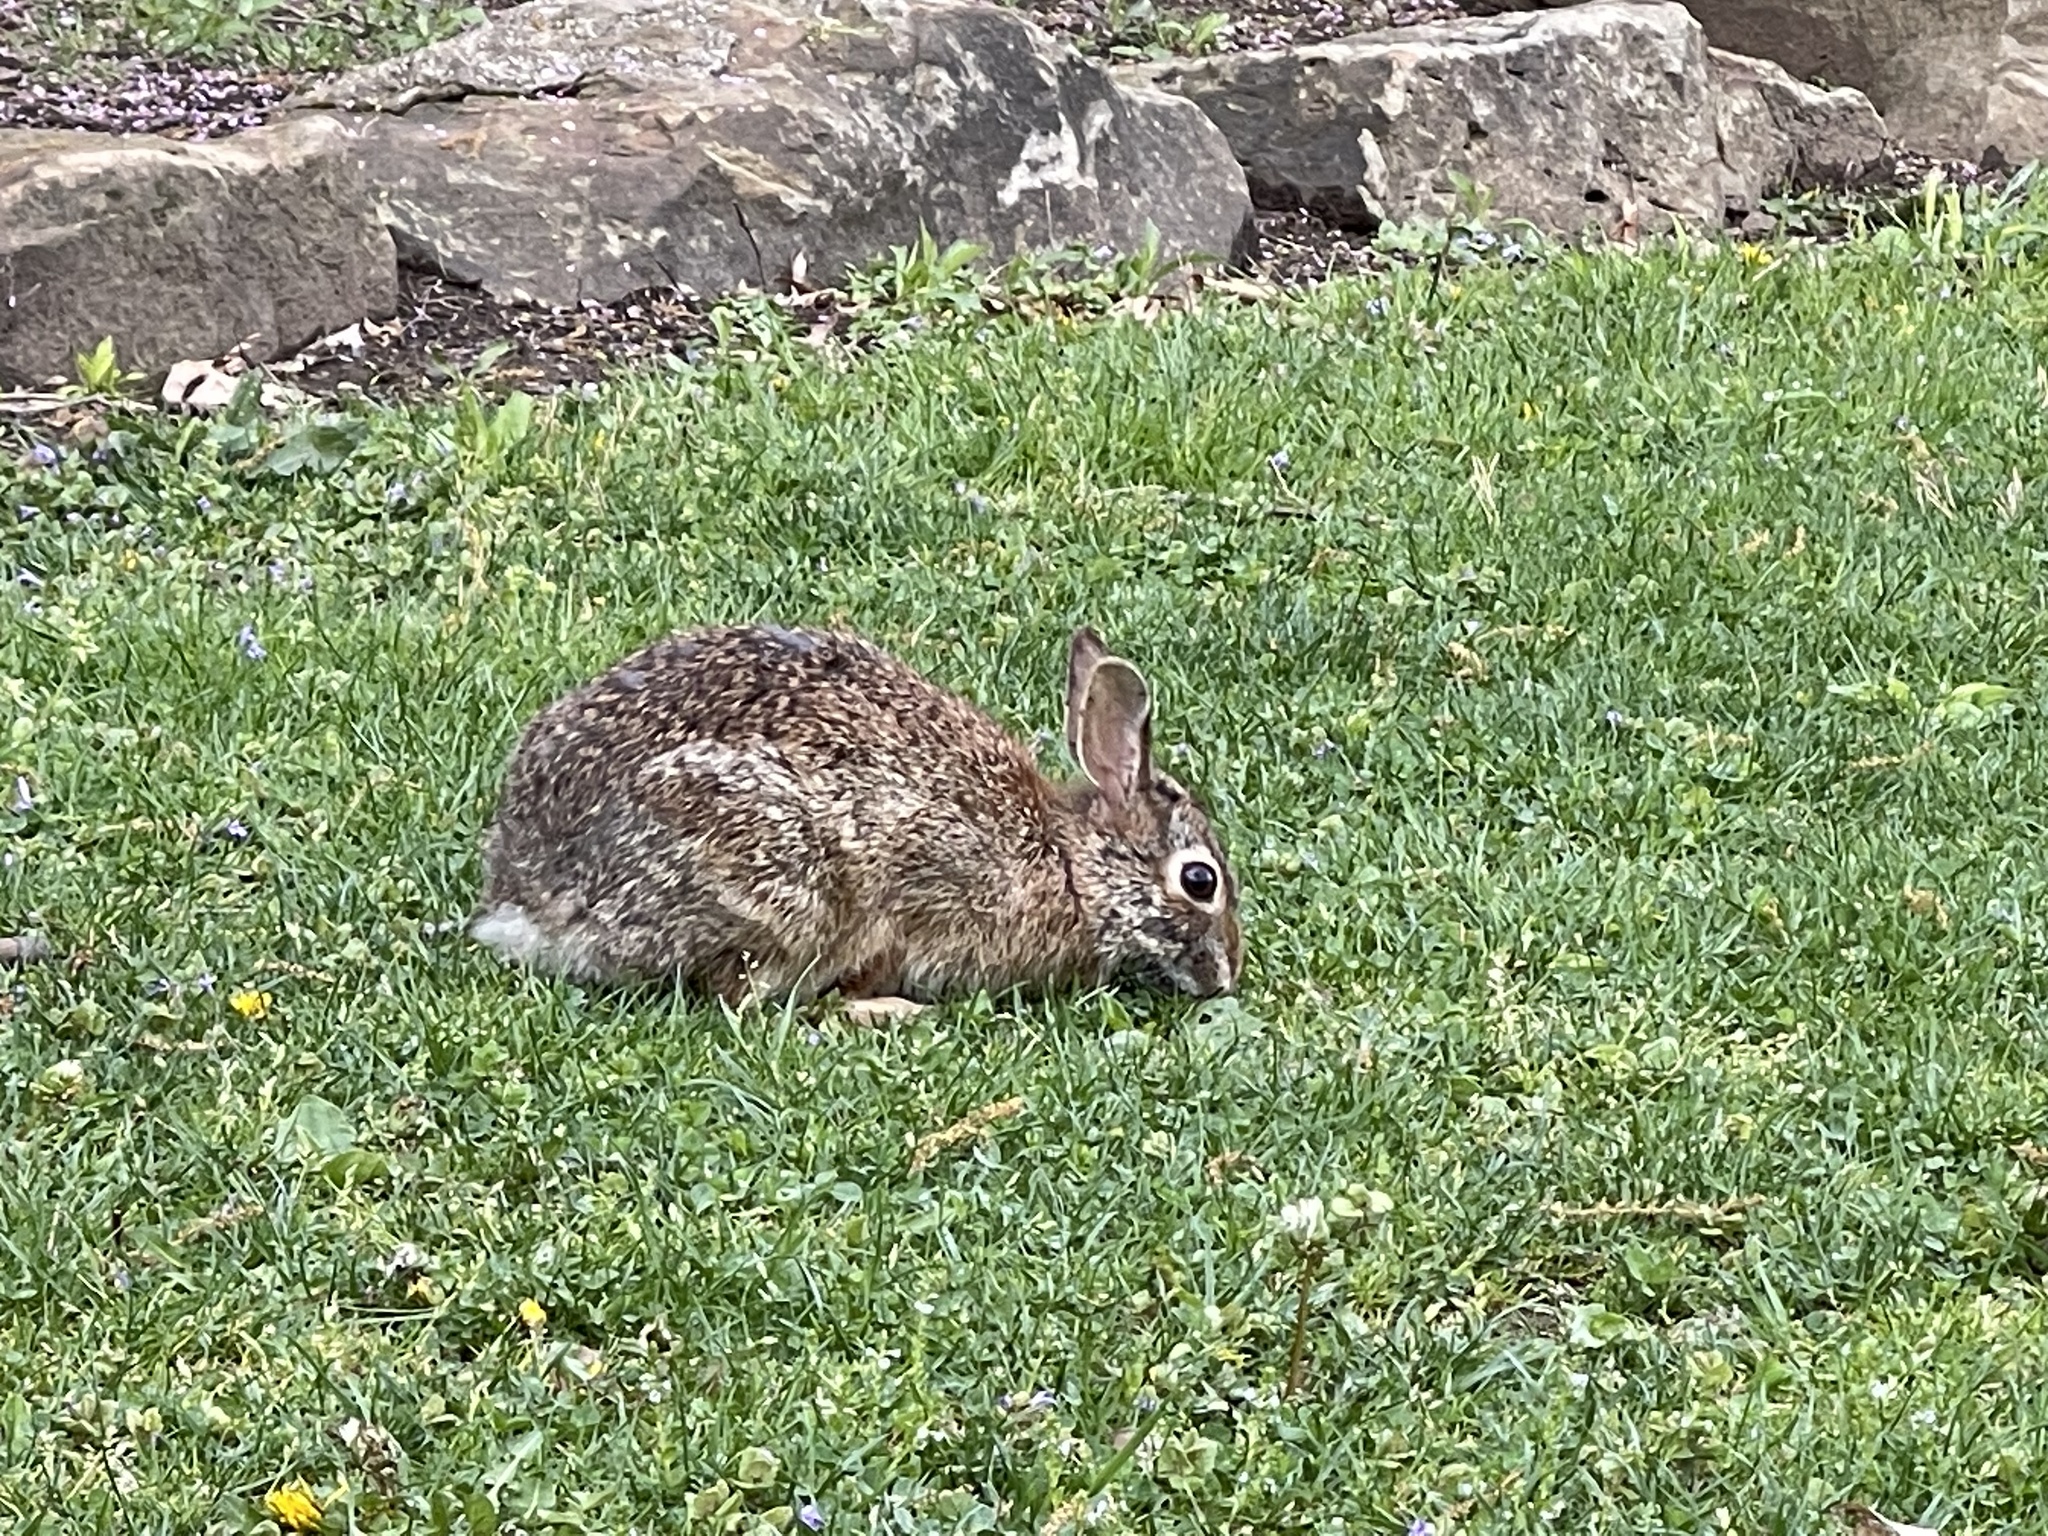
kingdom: Animalia
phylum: Chordata
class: Mammalia
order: Lagomorpha
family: Leporidae
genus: Sylvilagus
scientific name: Sylvilagus floridanus
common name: Eastern cottontail
